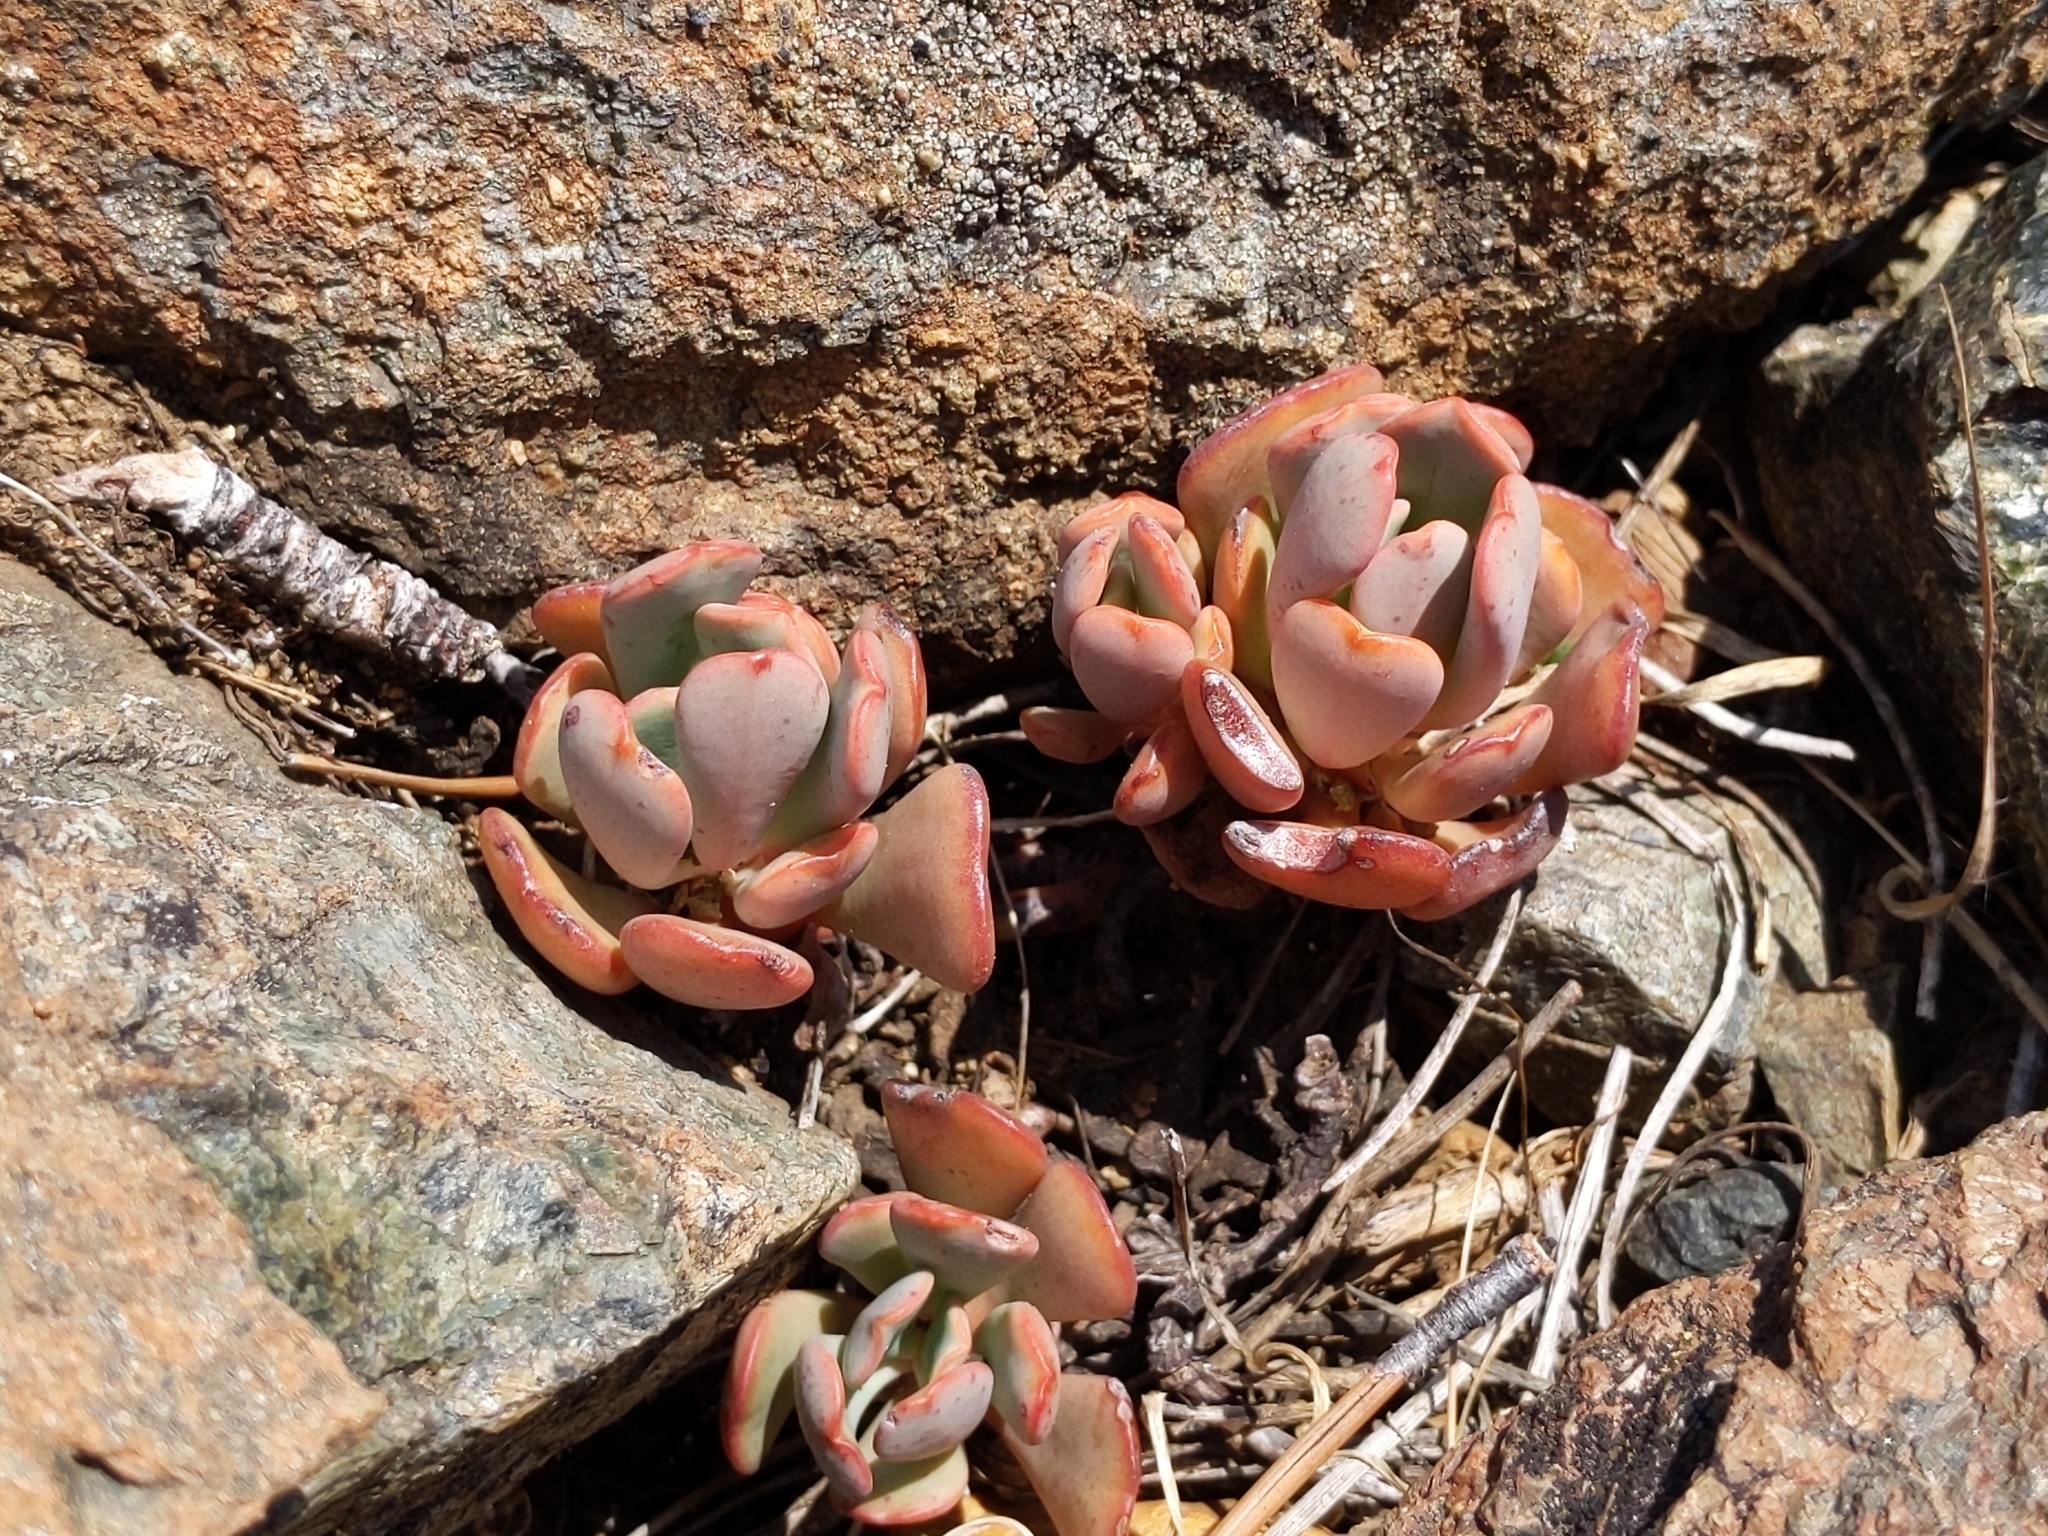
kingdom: Plantae
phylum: Tracheophyta
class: Magnoliopsida
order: Saxifragales
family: Crassulaceae
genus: Sedum
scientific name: Sedum
